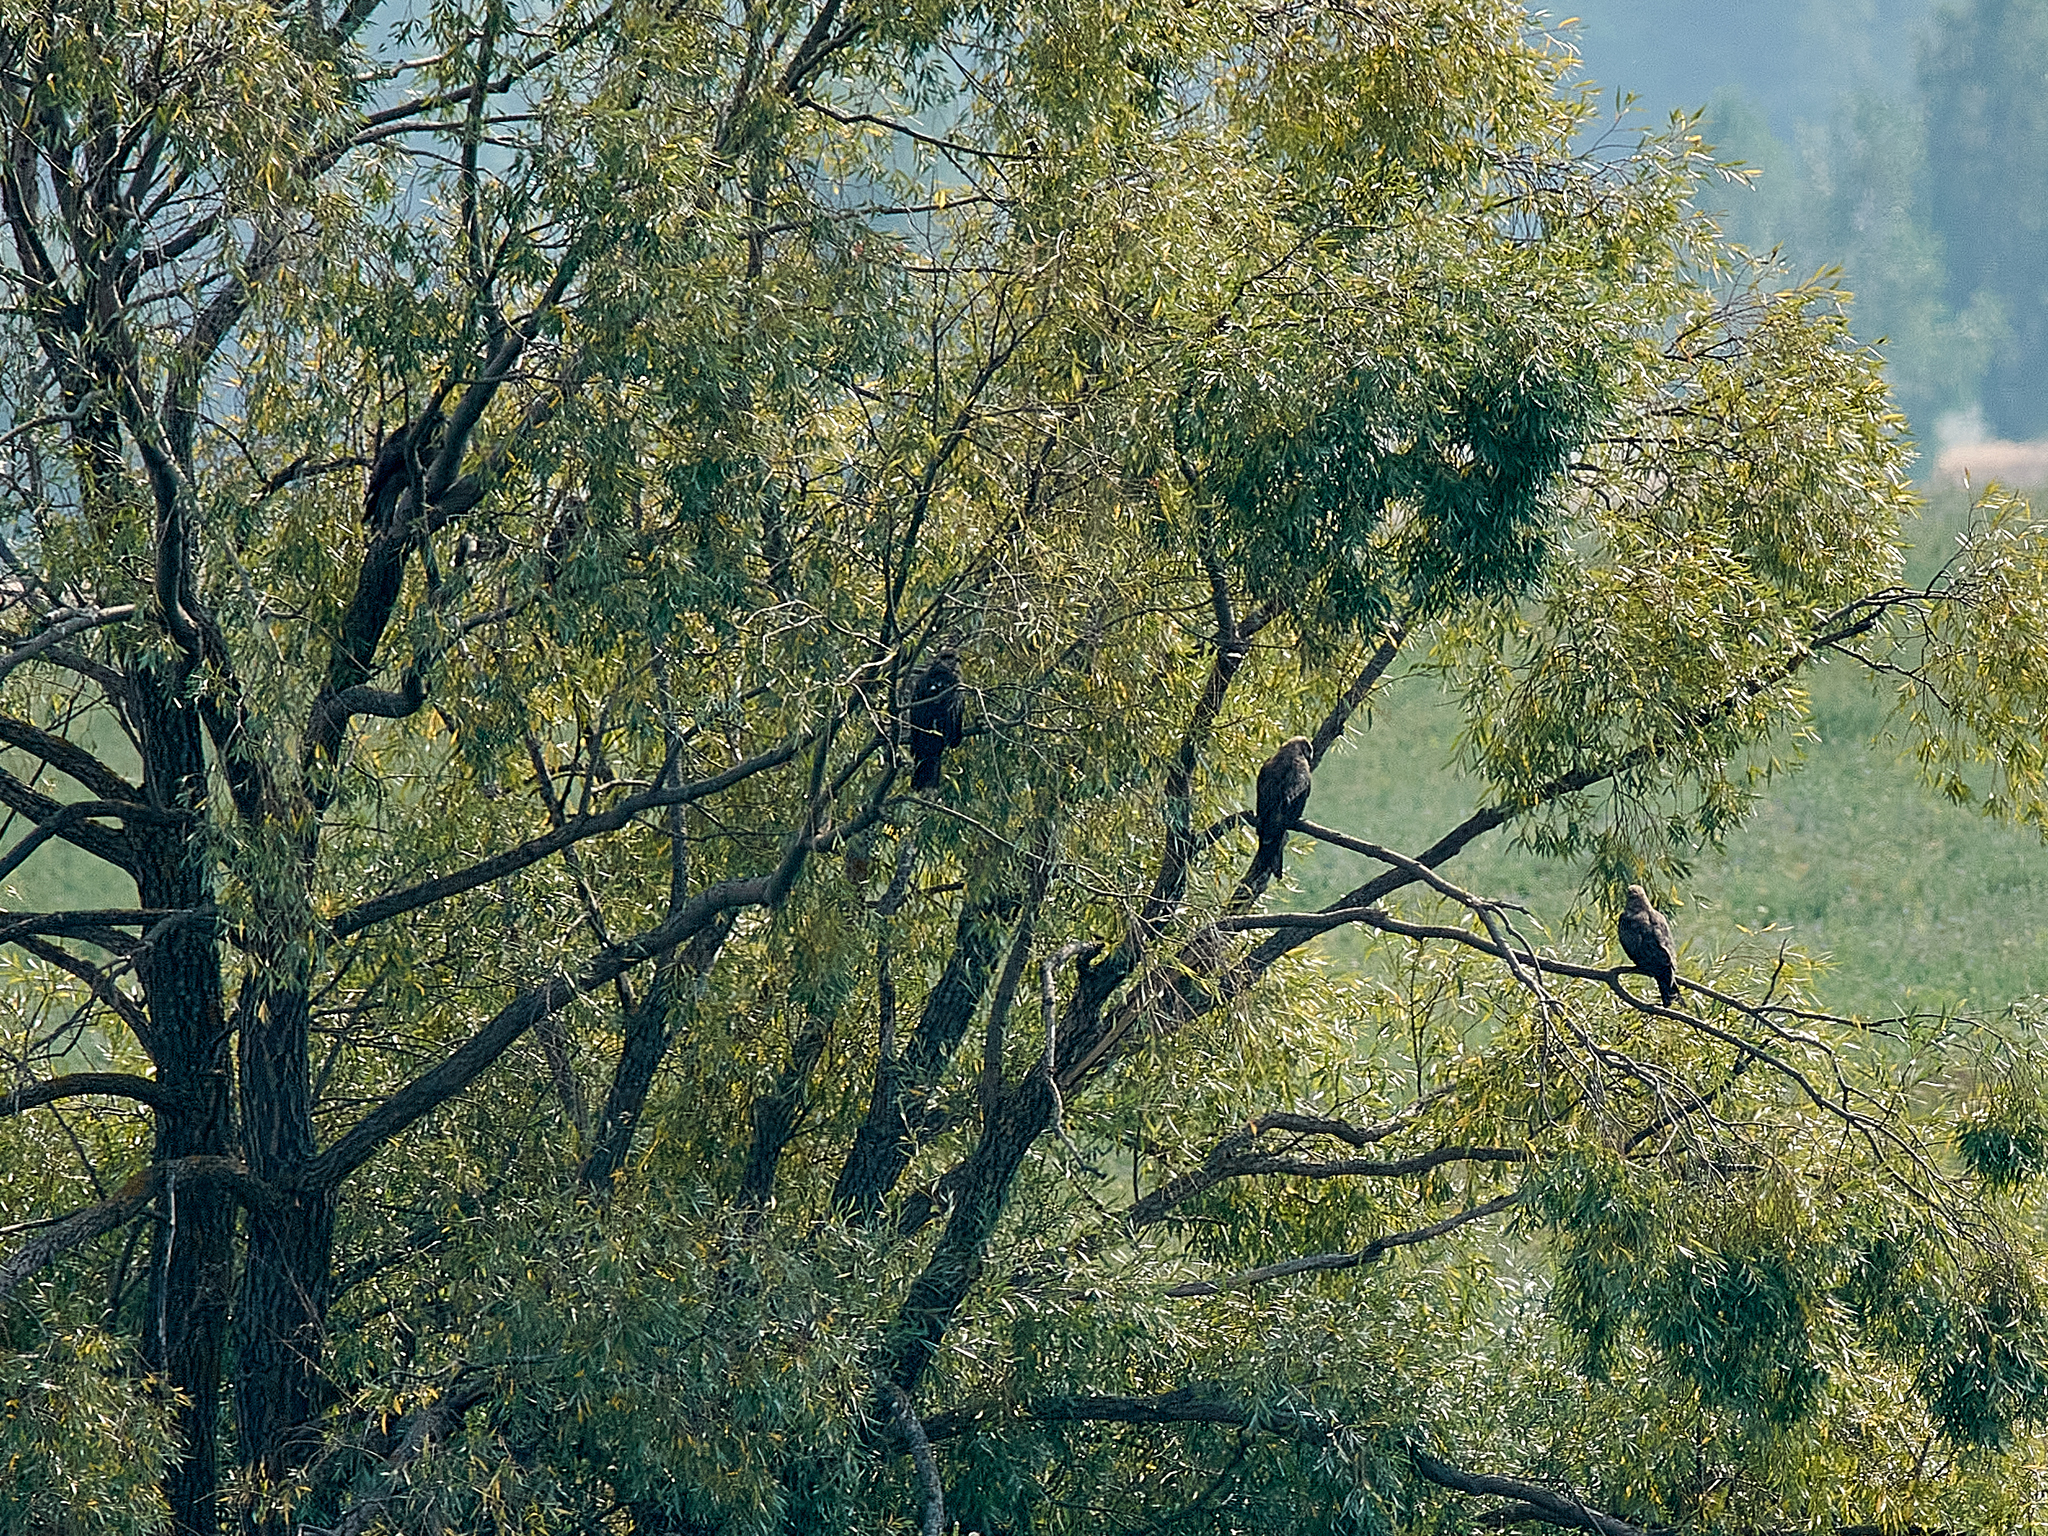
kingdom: Animalia
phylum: Chordata
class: Aves
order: Accipitriformes
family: Accipitridae
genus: Milvus
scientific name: Milvus migrans
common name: Black kite
